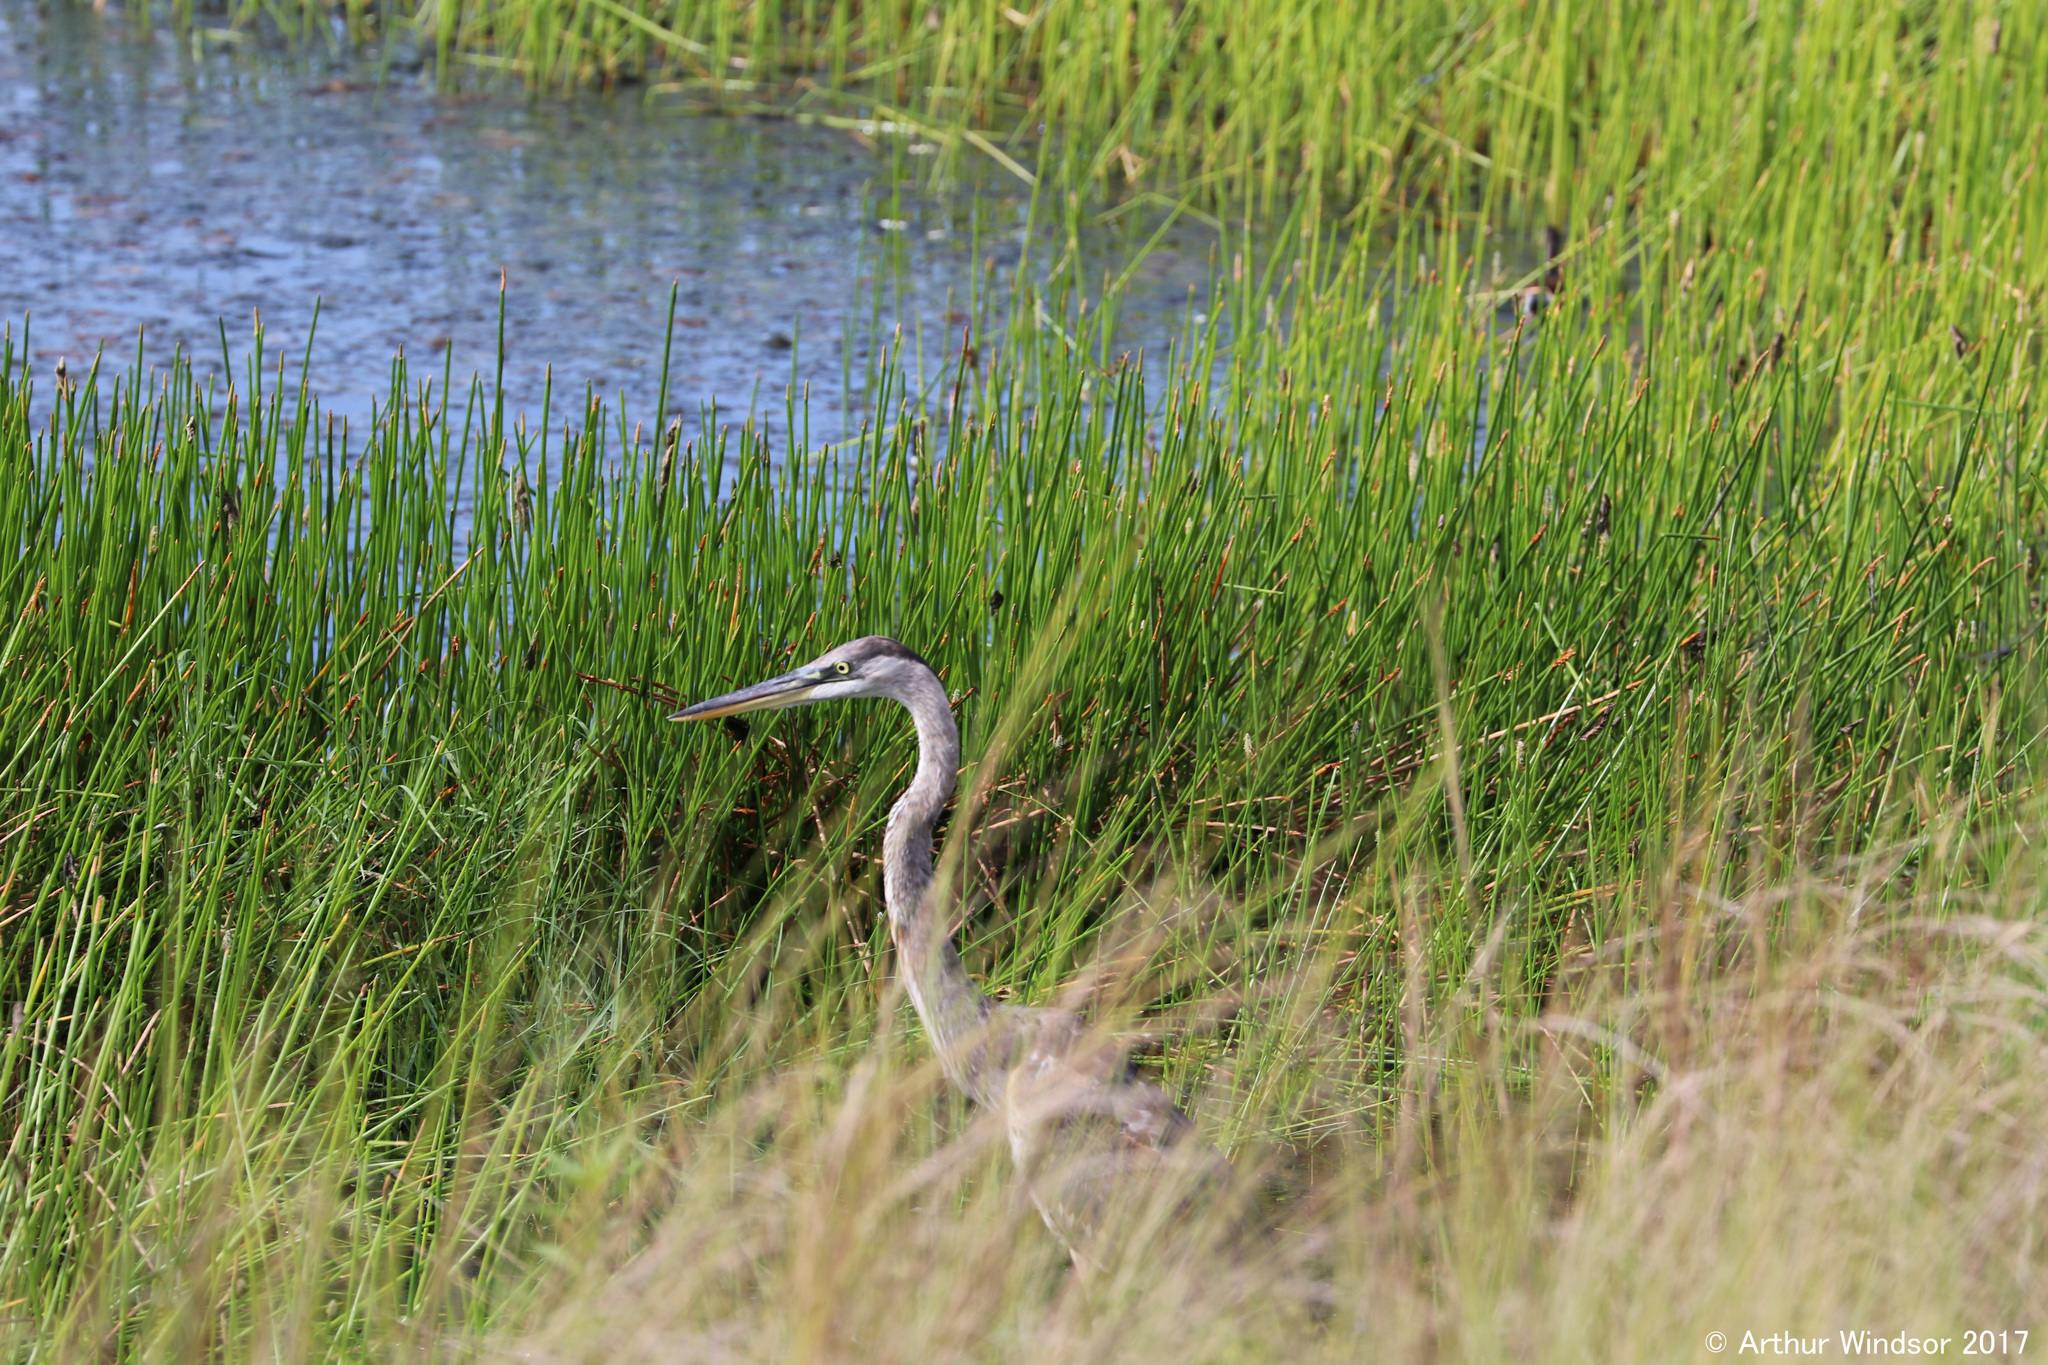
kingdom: Animalia
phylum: Chordata
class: Aves
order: Pelecaniformes
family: Ardeidae
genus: Ardea
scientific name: Ardea herodias
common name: Great blue heron
